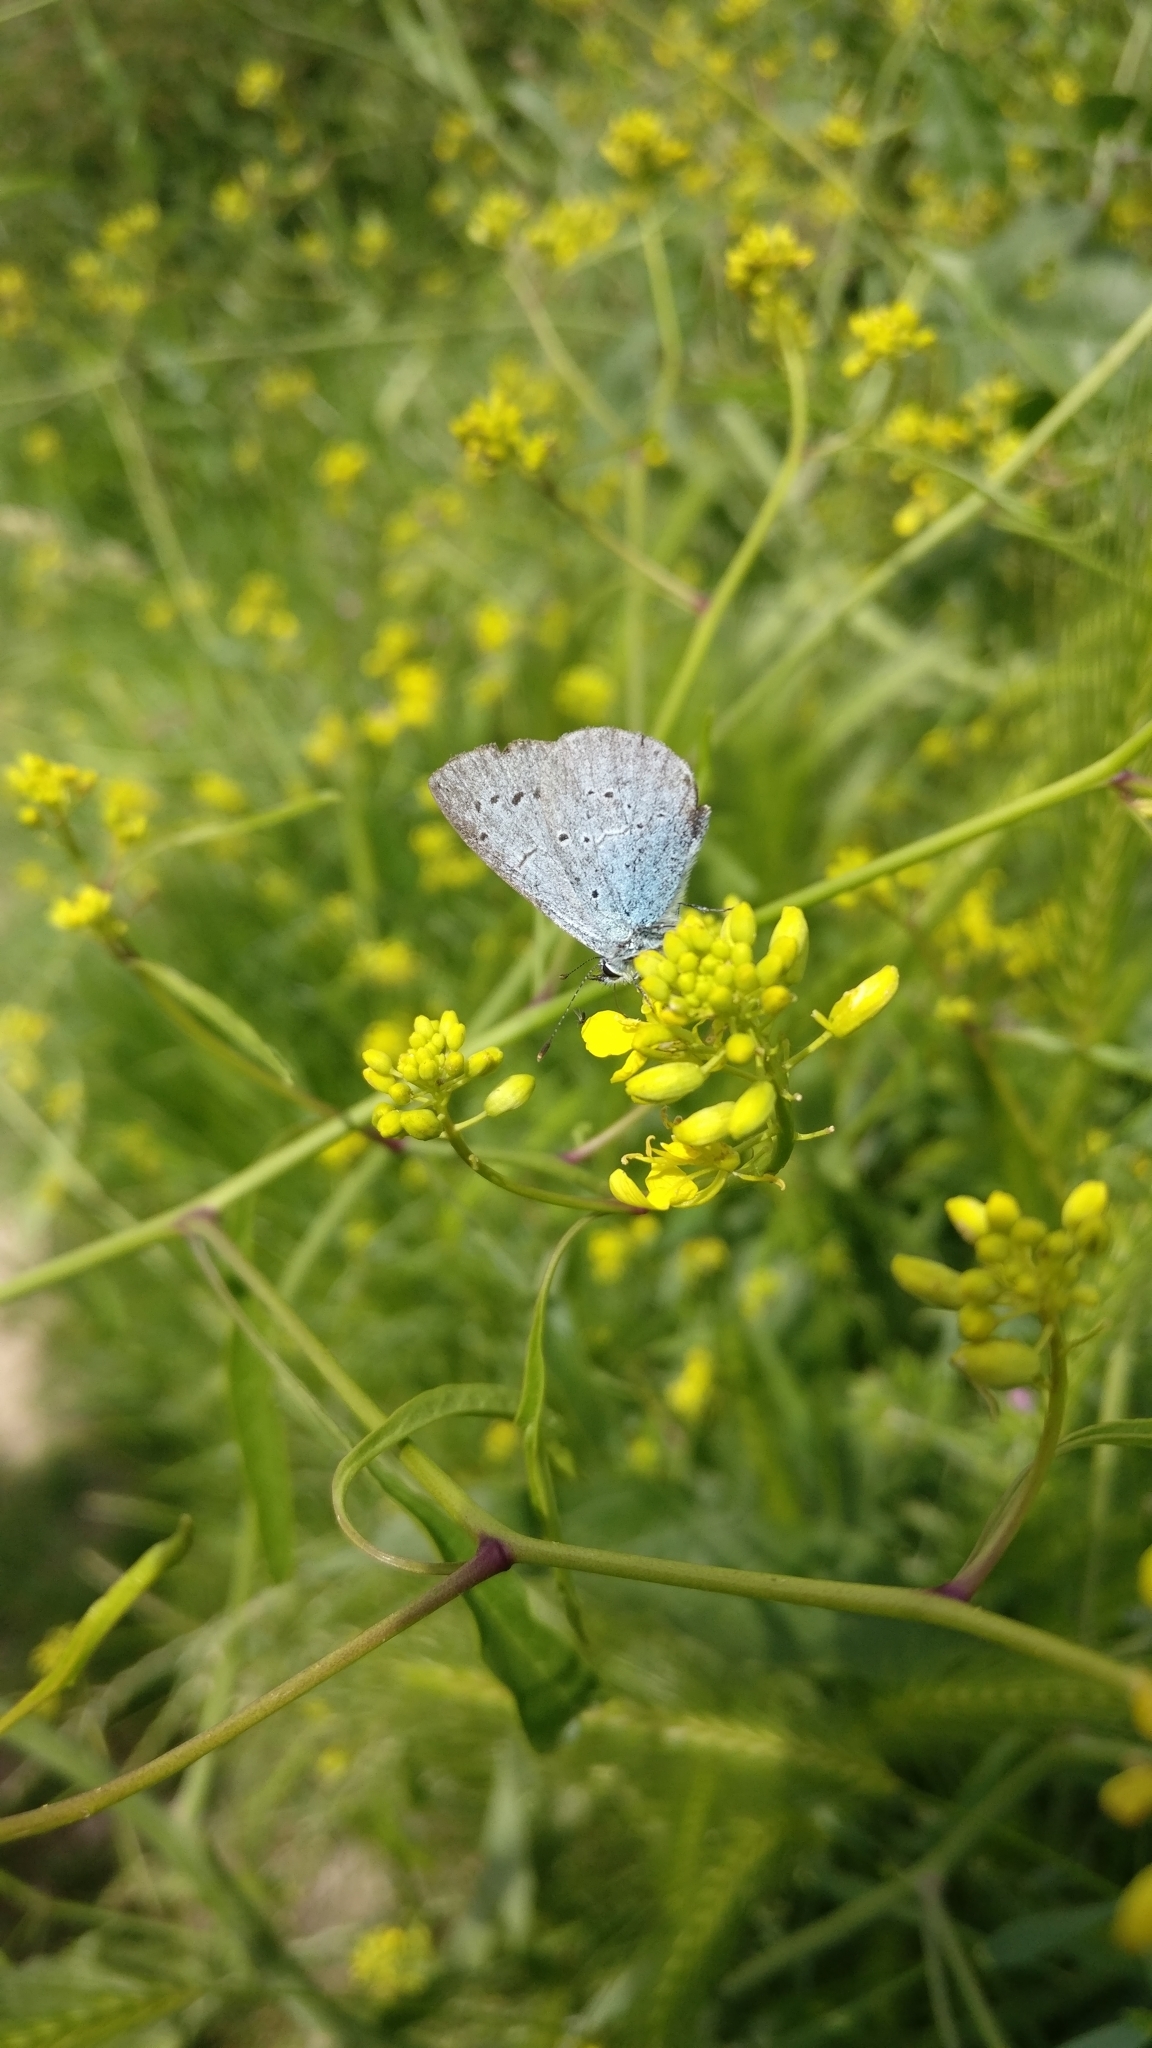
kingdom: Animalia
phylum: Arthropoda
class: Insecta
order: Lepidoptera
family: Lycaenidae
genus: Celastrina
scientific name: Celastrina argiolus
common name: Holly blue
